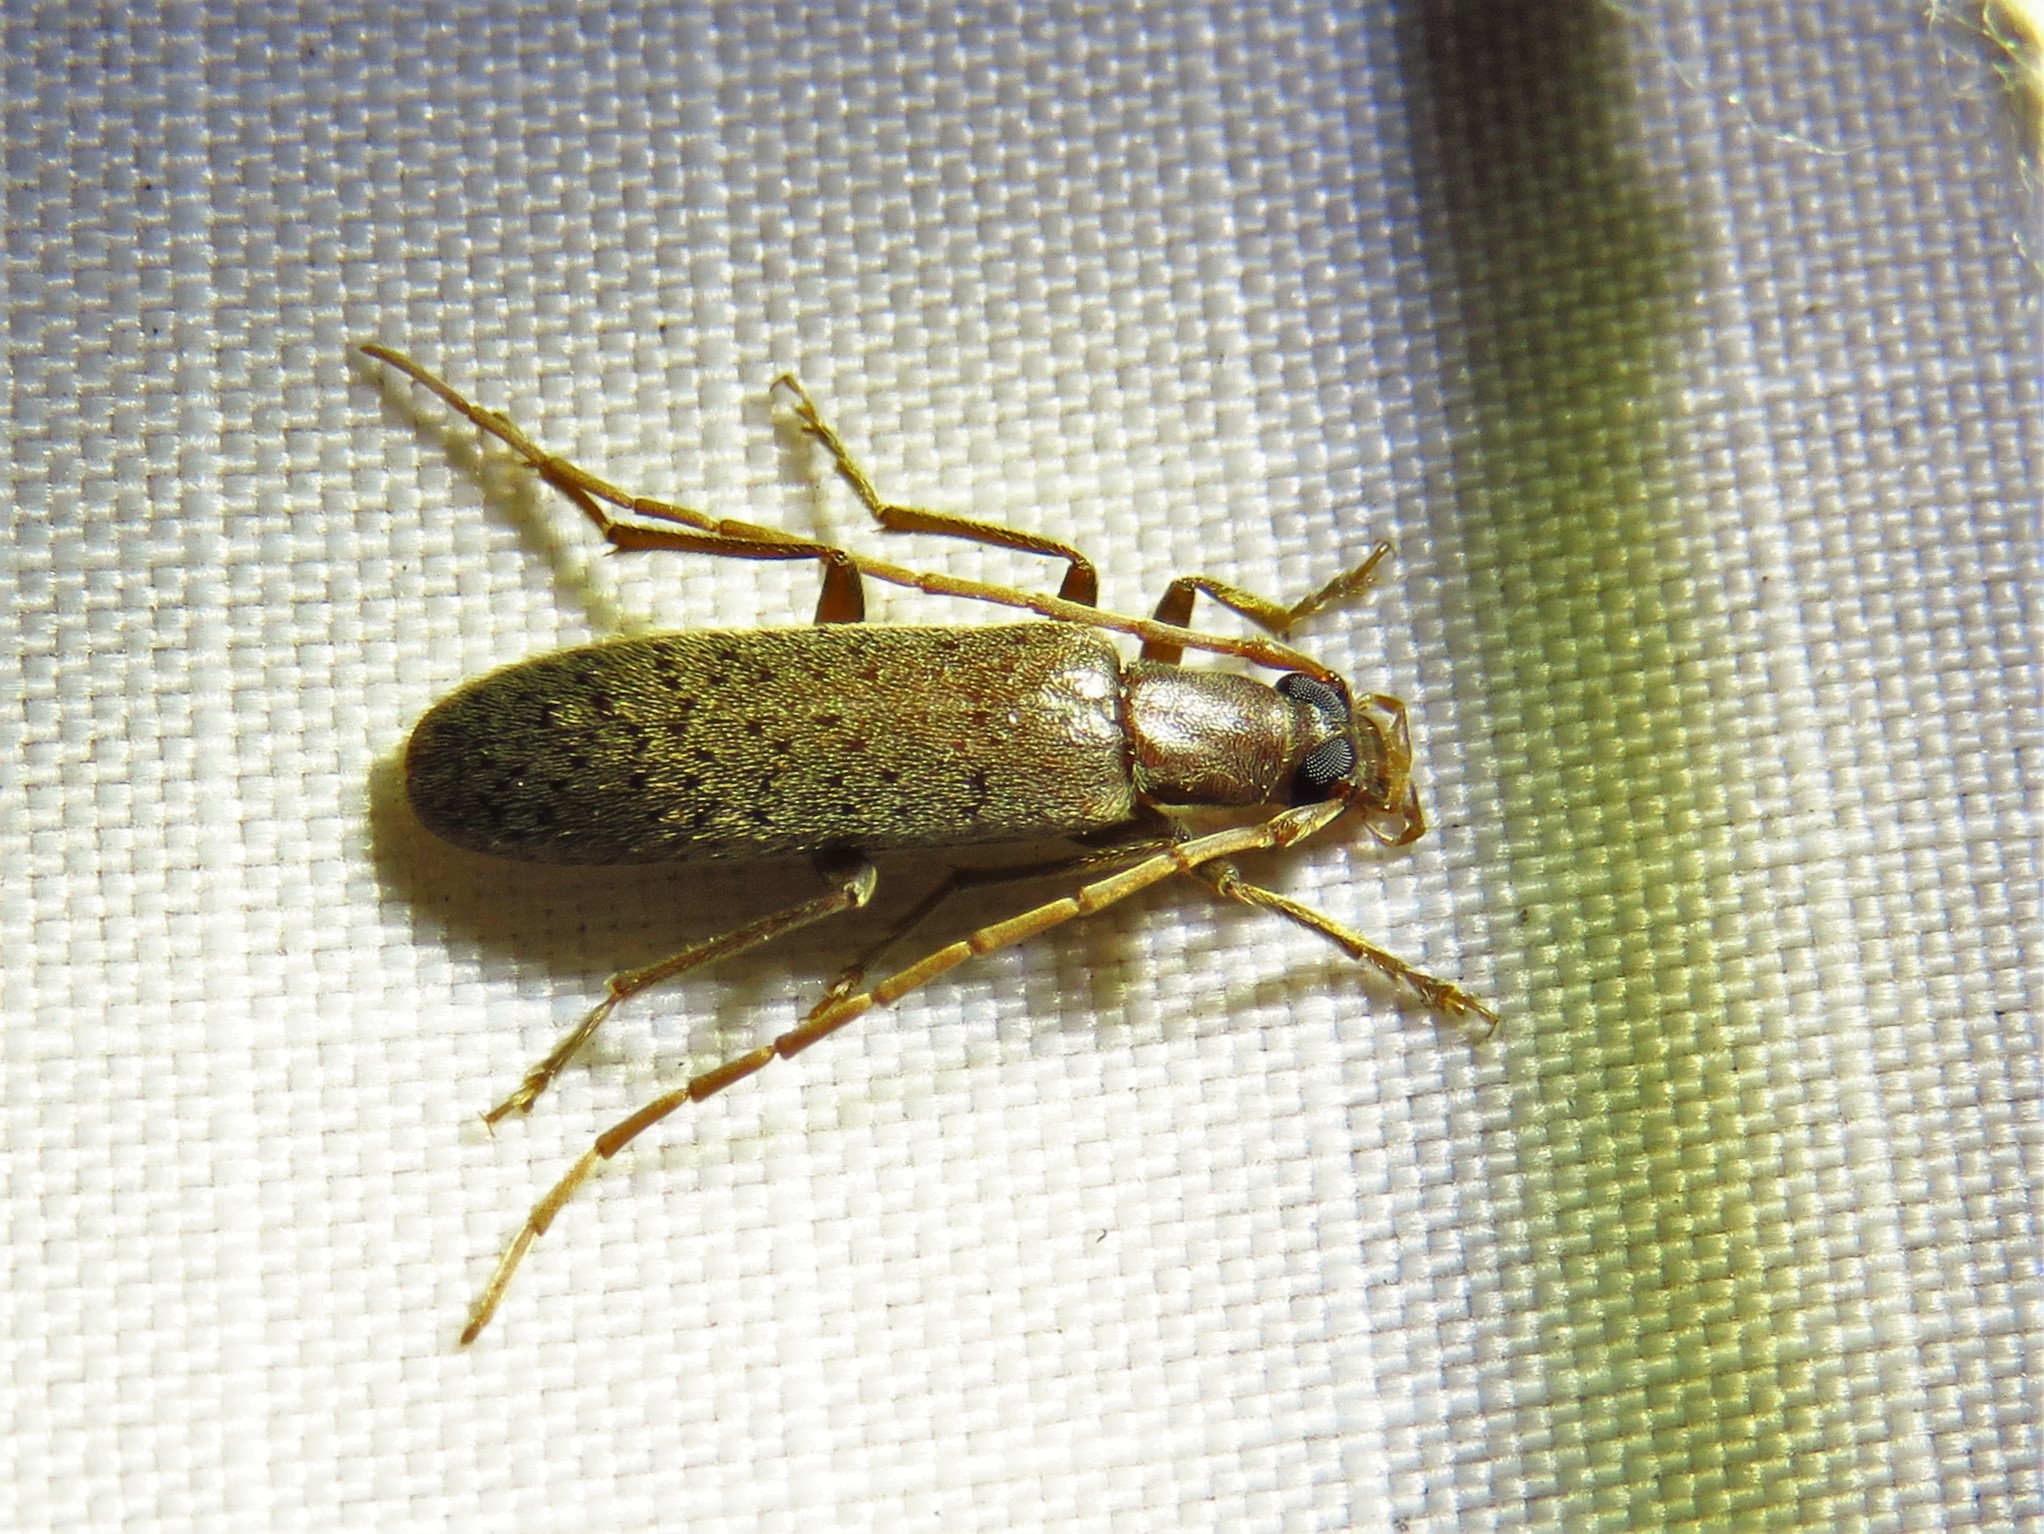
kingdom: Animalia
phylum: Arthropoda
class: Insecta
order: Coleoptera
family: Oedemeridae
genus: Sparedrus
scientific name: Sparedrus aspersus
